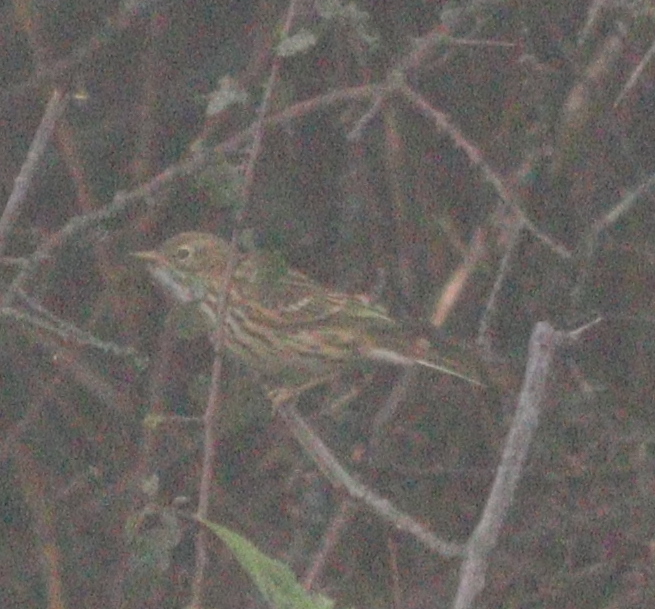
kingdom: Animalia
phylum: Chordata
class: Aves
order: Passeriformes
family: Motacillidae
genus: Anthus
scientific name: Anthus pratensis
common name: Meadow pipit
